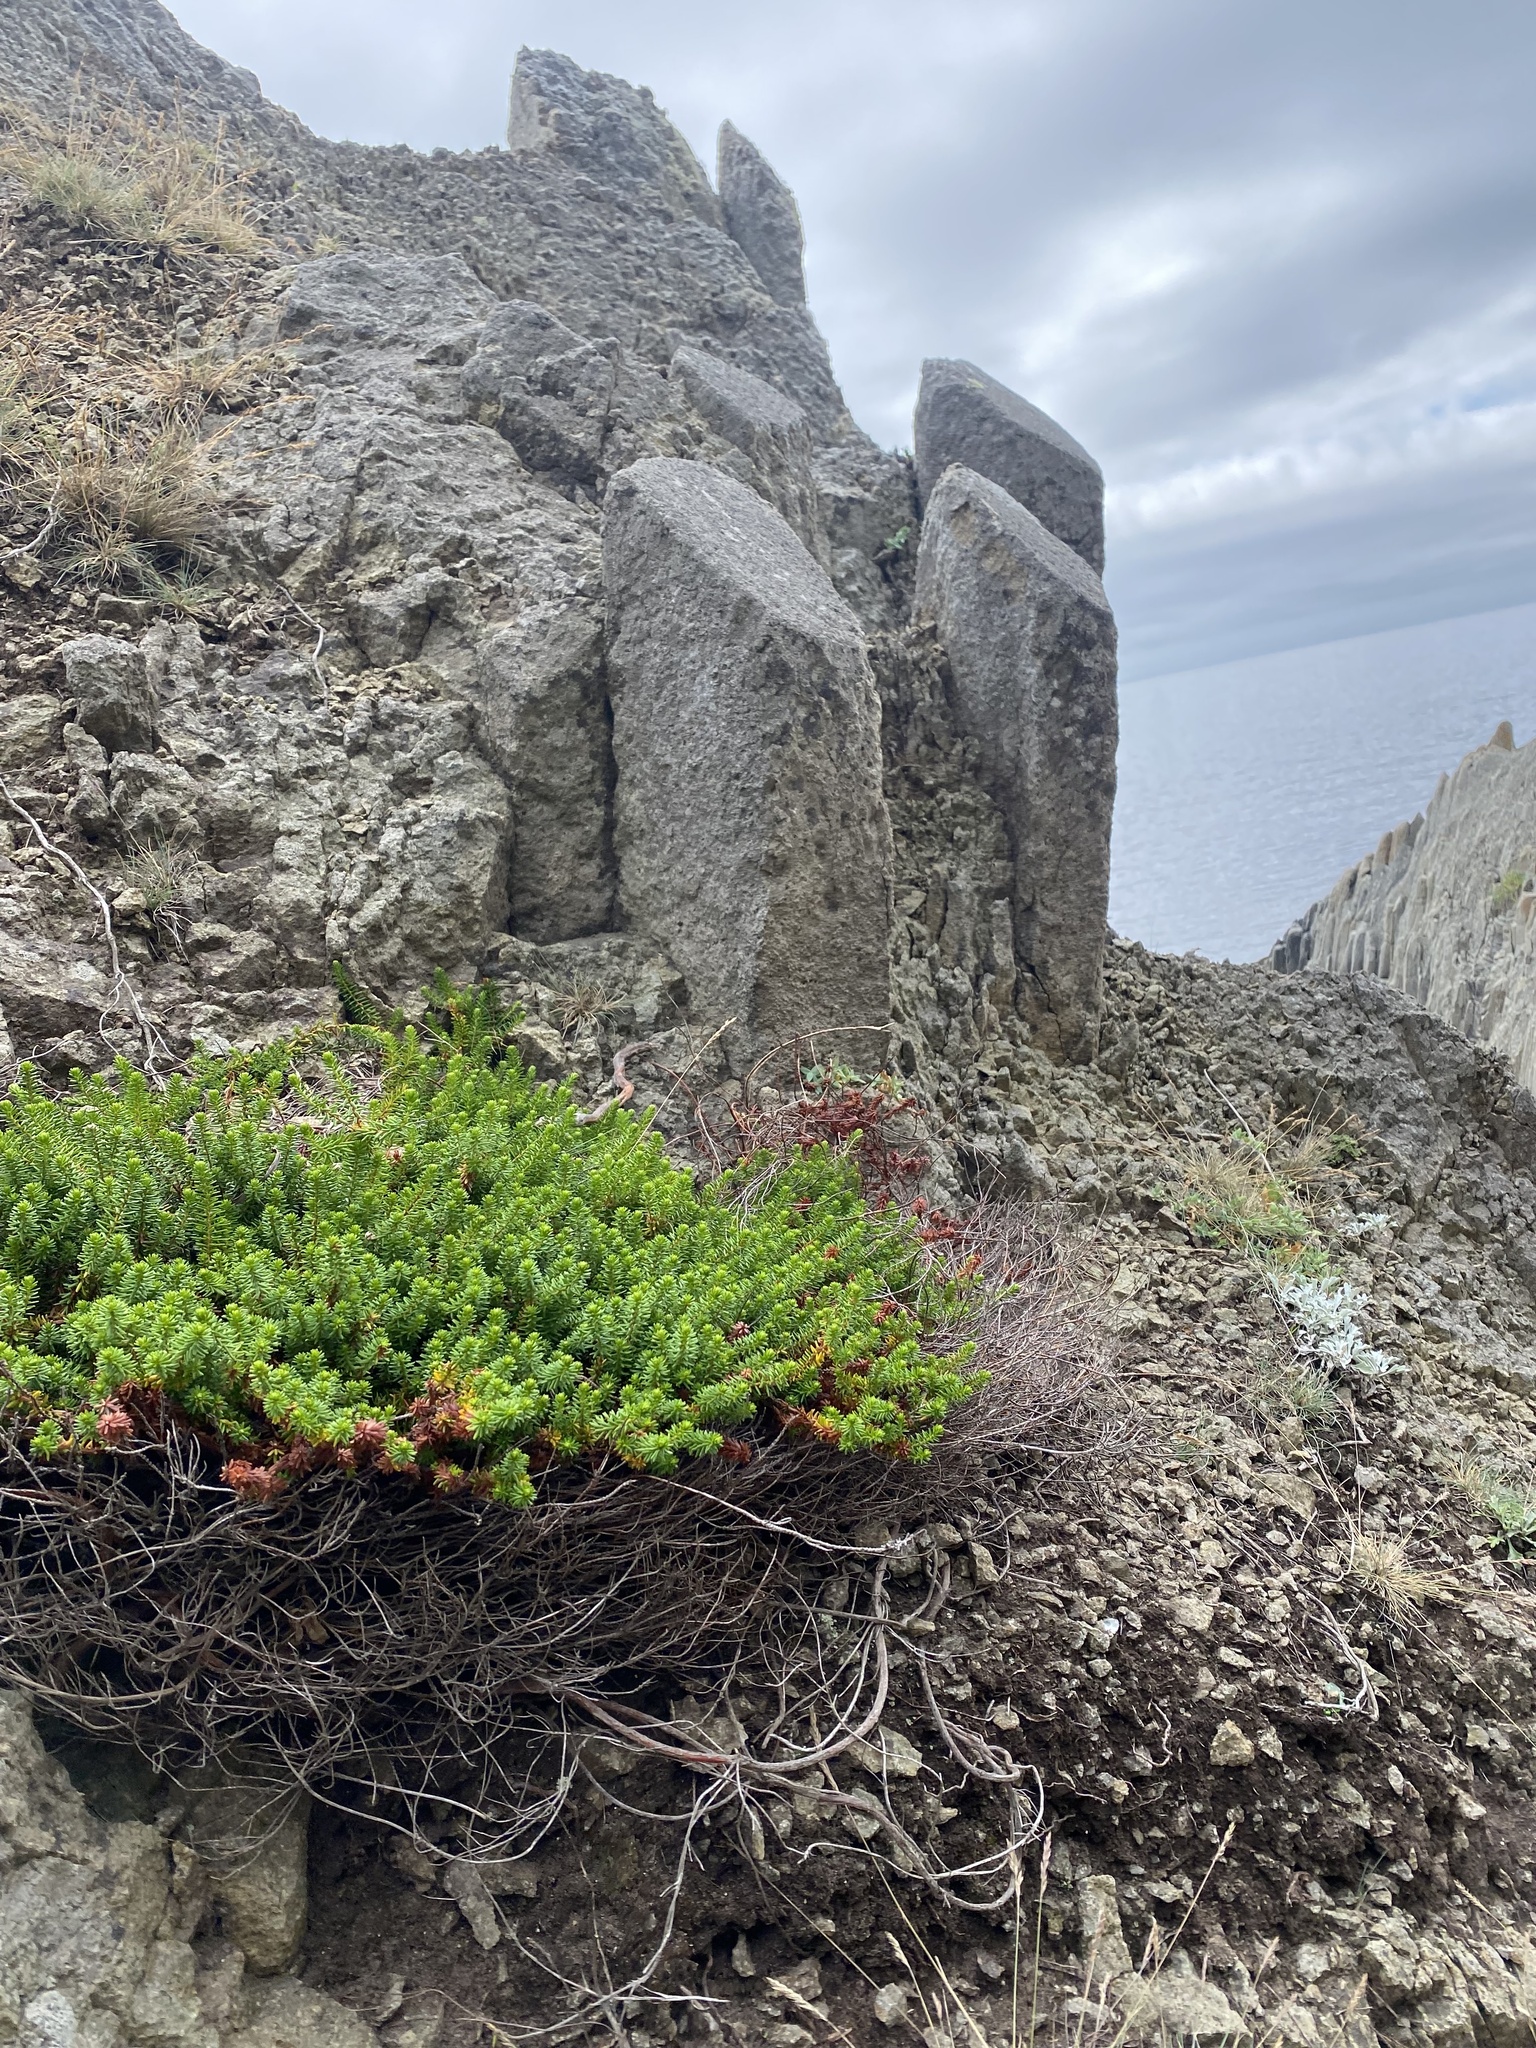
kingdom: Plantae
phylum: Tracheophyta
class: Magnoliopsida
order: Ericales
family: Ericaceae
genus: Empetrum
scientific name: Empetrum nigrum
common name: Black crowberry
